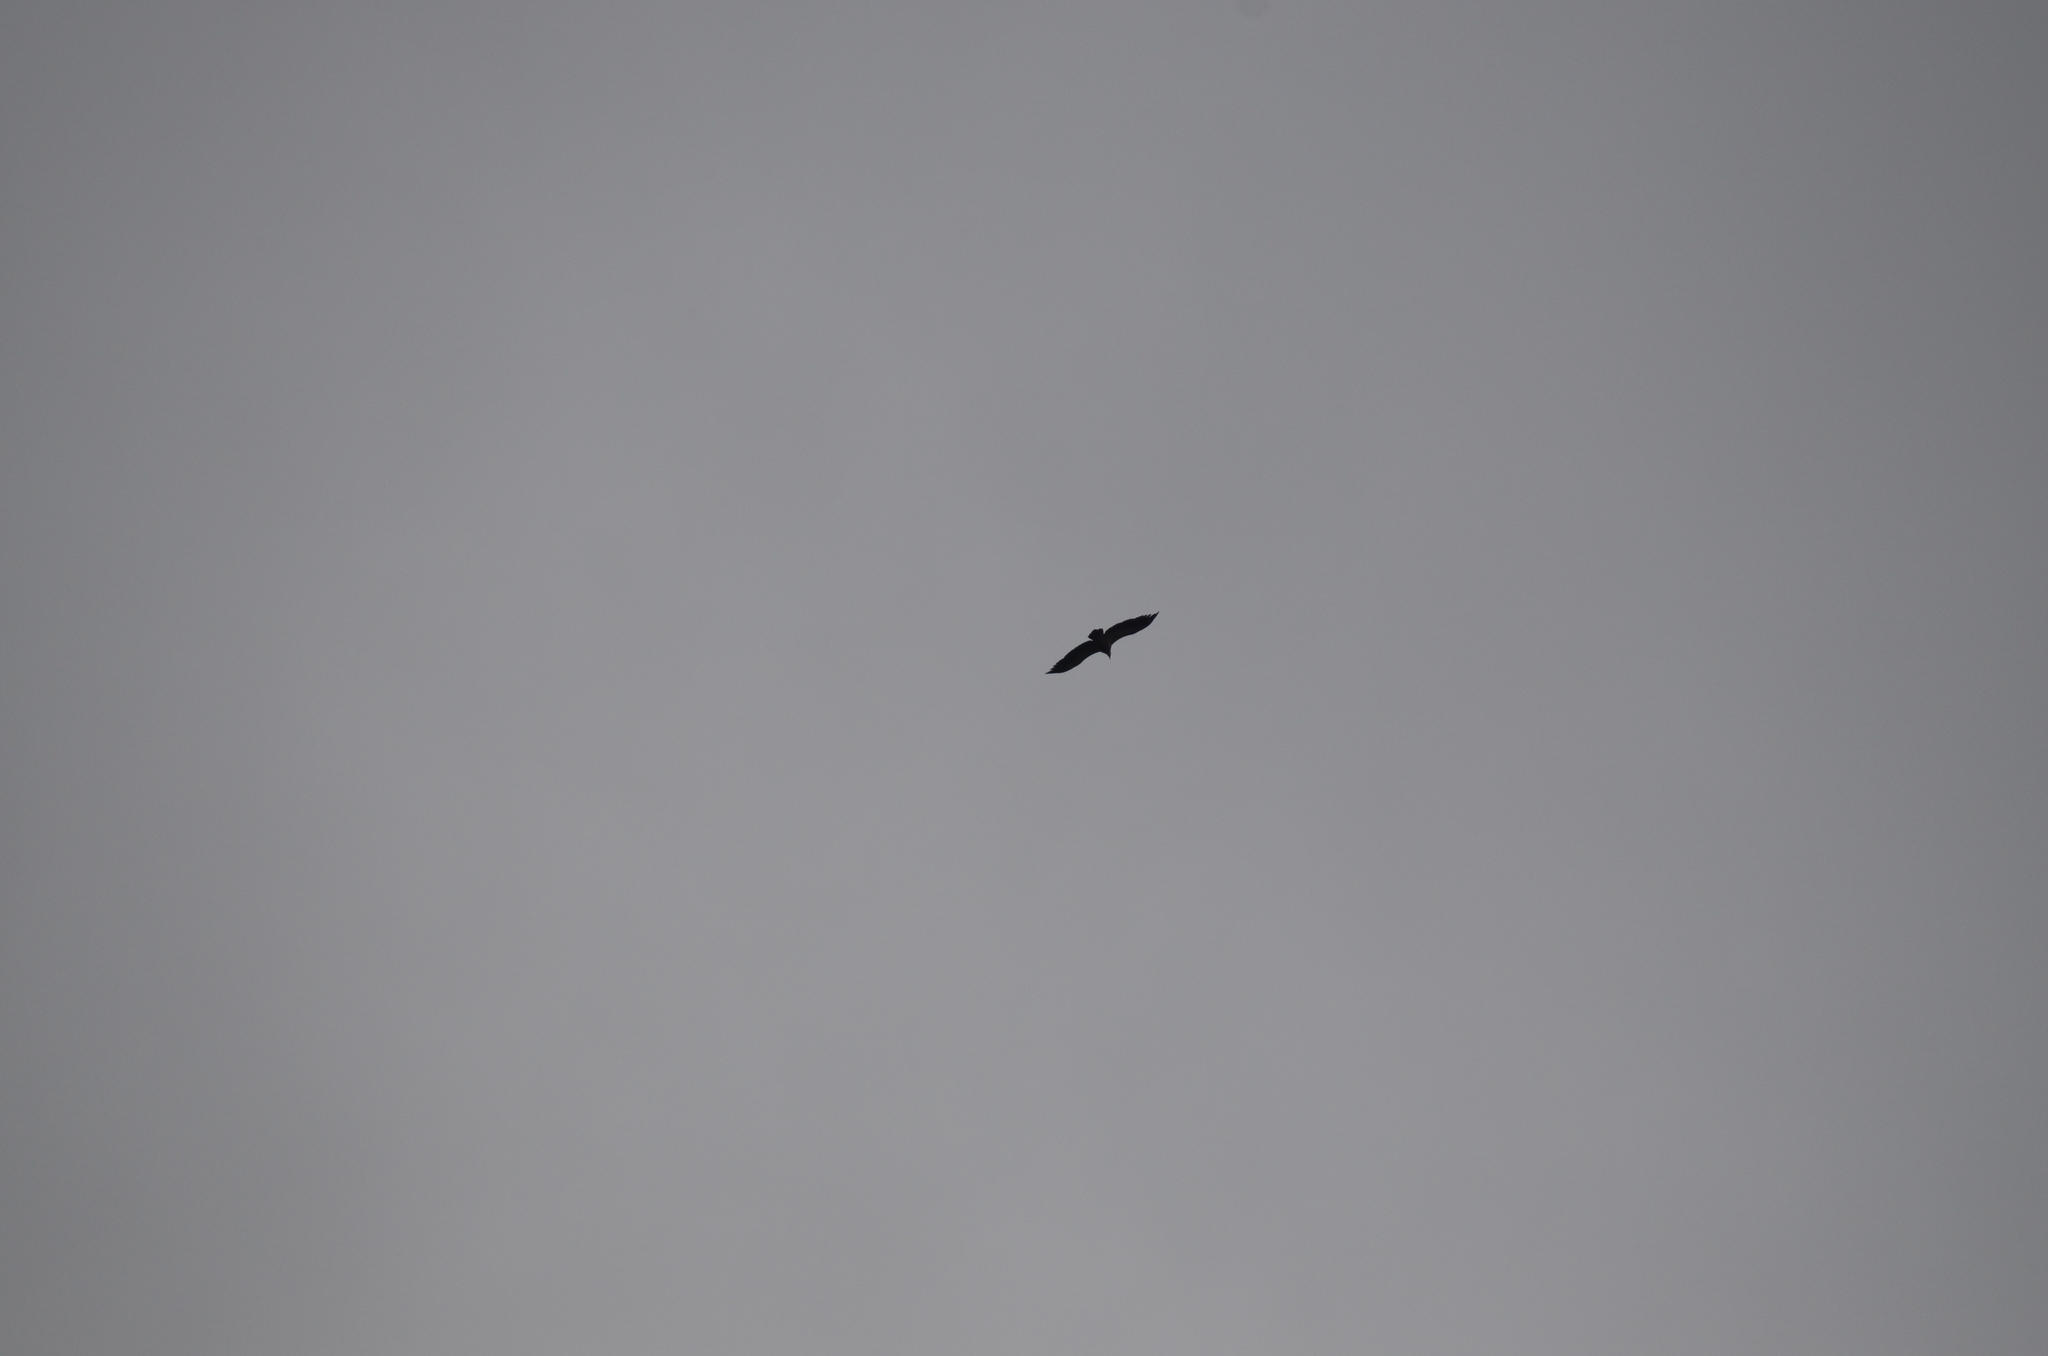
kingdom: Animalia
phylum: Chordata
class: Aves
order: Accipitriformes
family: Accipitridae
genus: Gyps
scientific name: Gyps fulvus
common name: Griffon vulture
